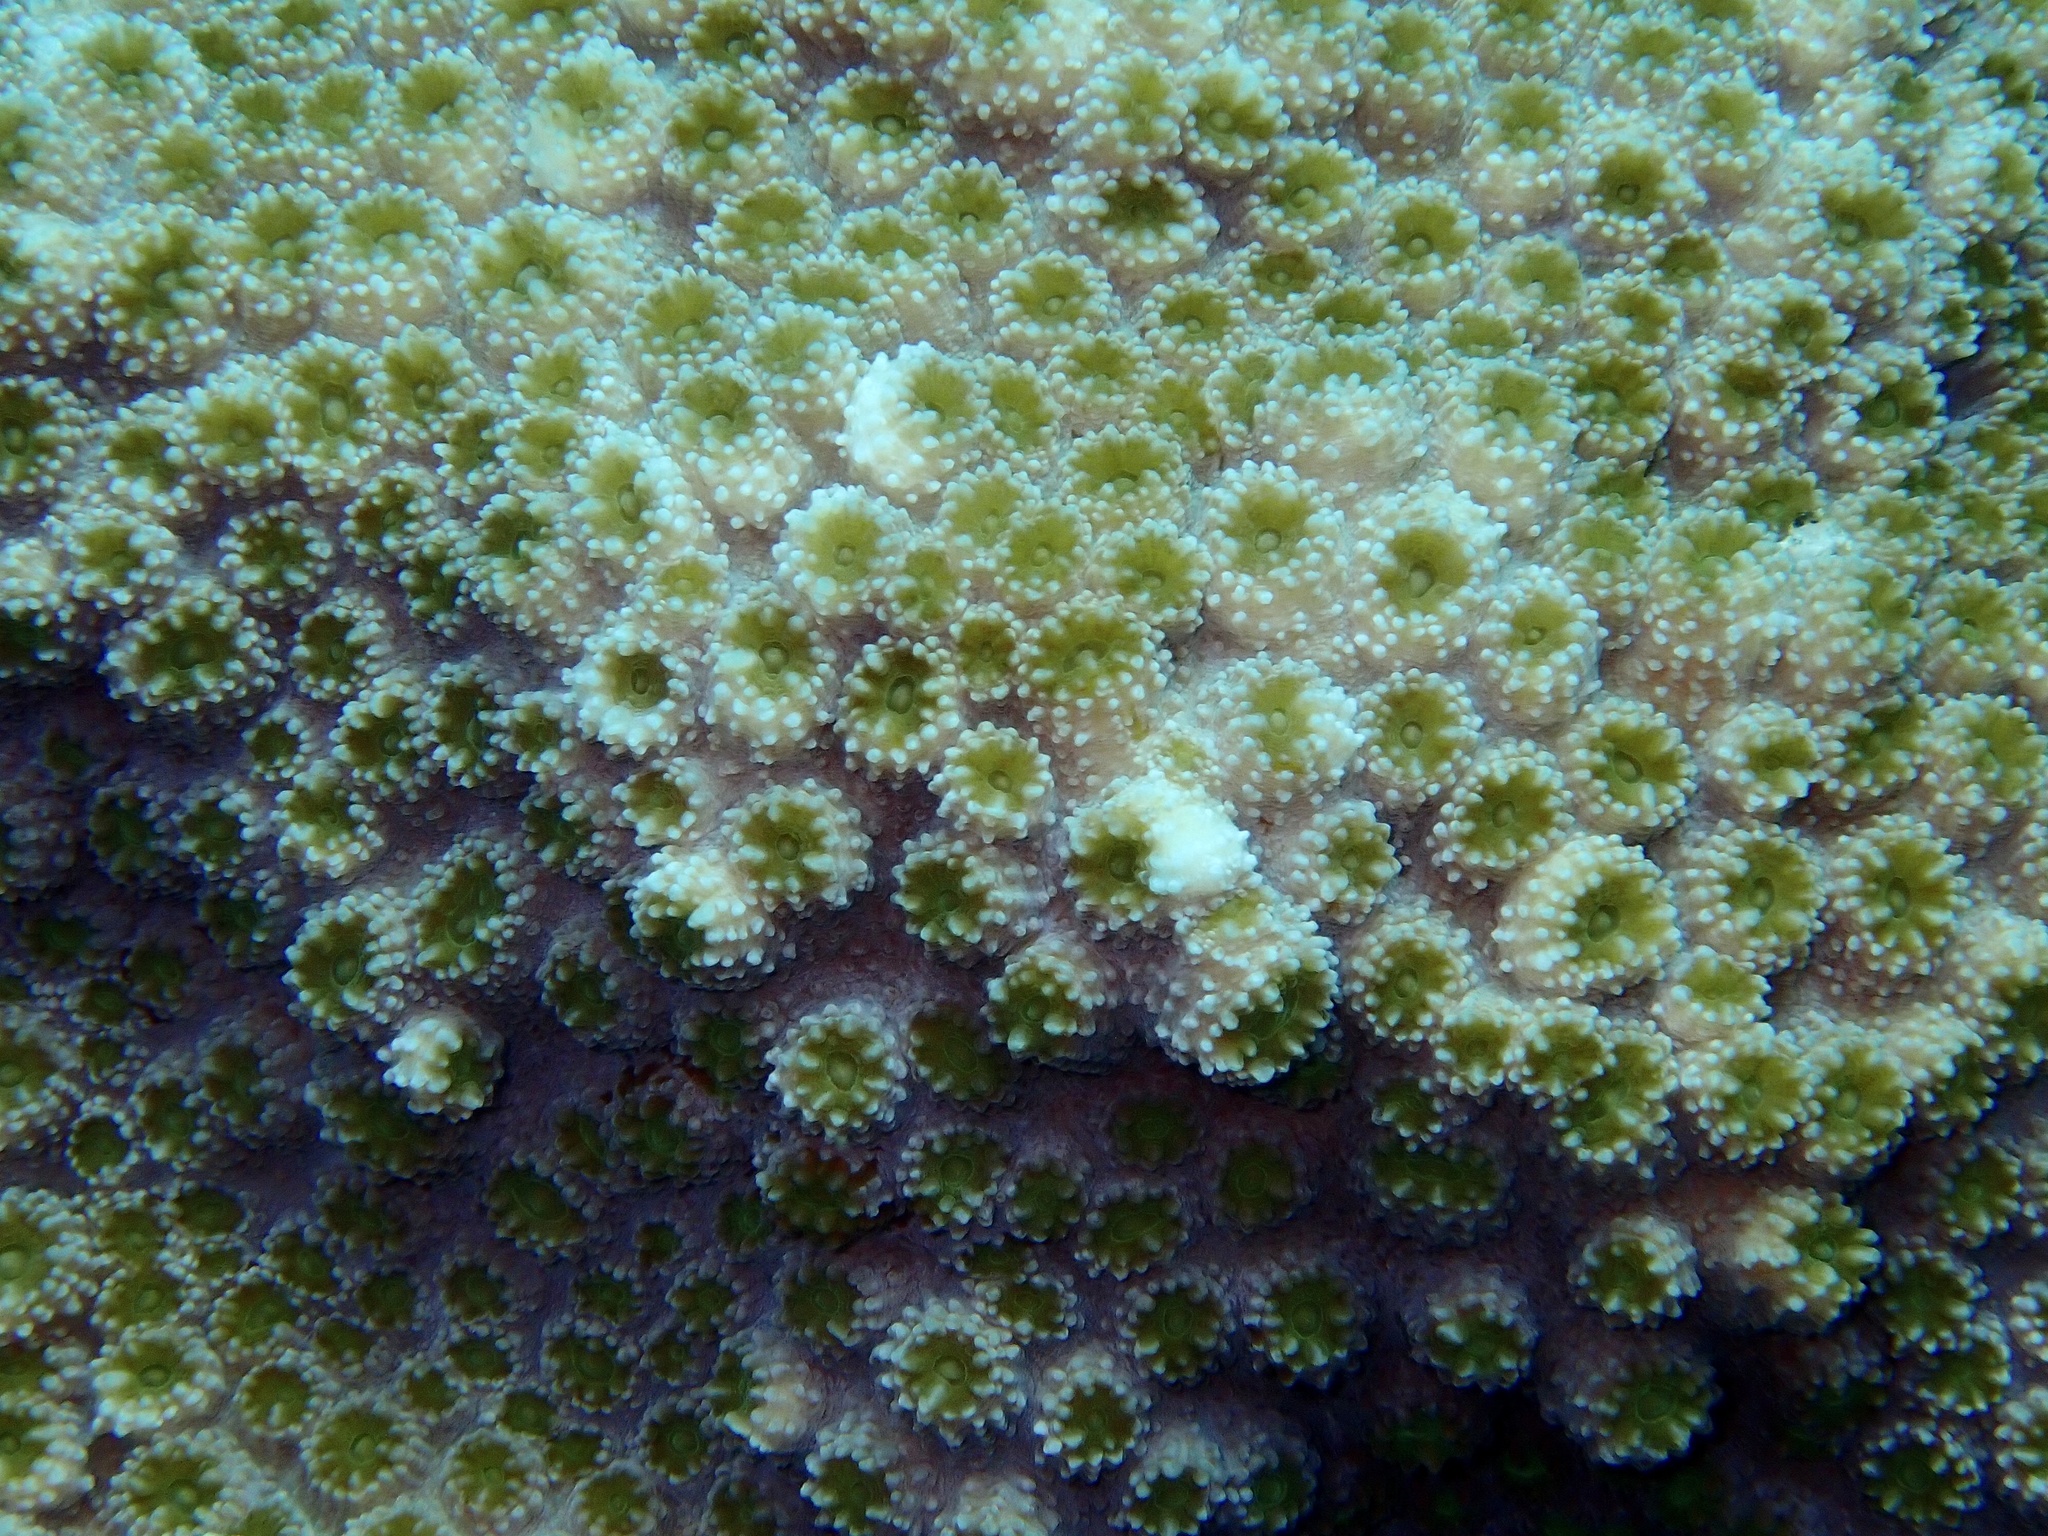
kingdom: Animalia
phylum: Cnidaria
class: Anthozoa
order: Scleractinia
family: Merulinidae
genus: Echinopora
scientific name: Echinopora hirsutissima
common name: Hedgehog coral
